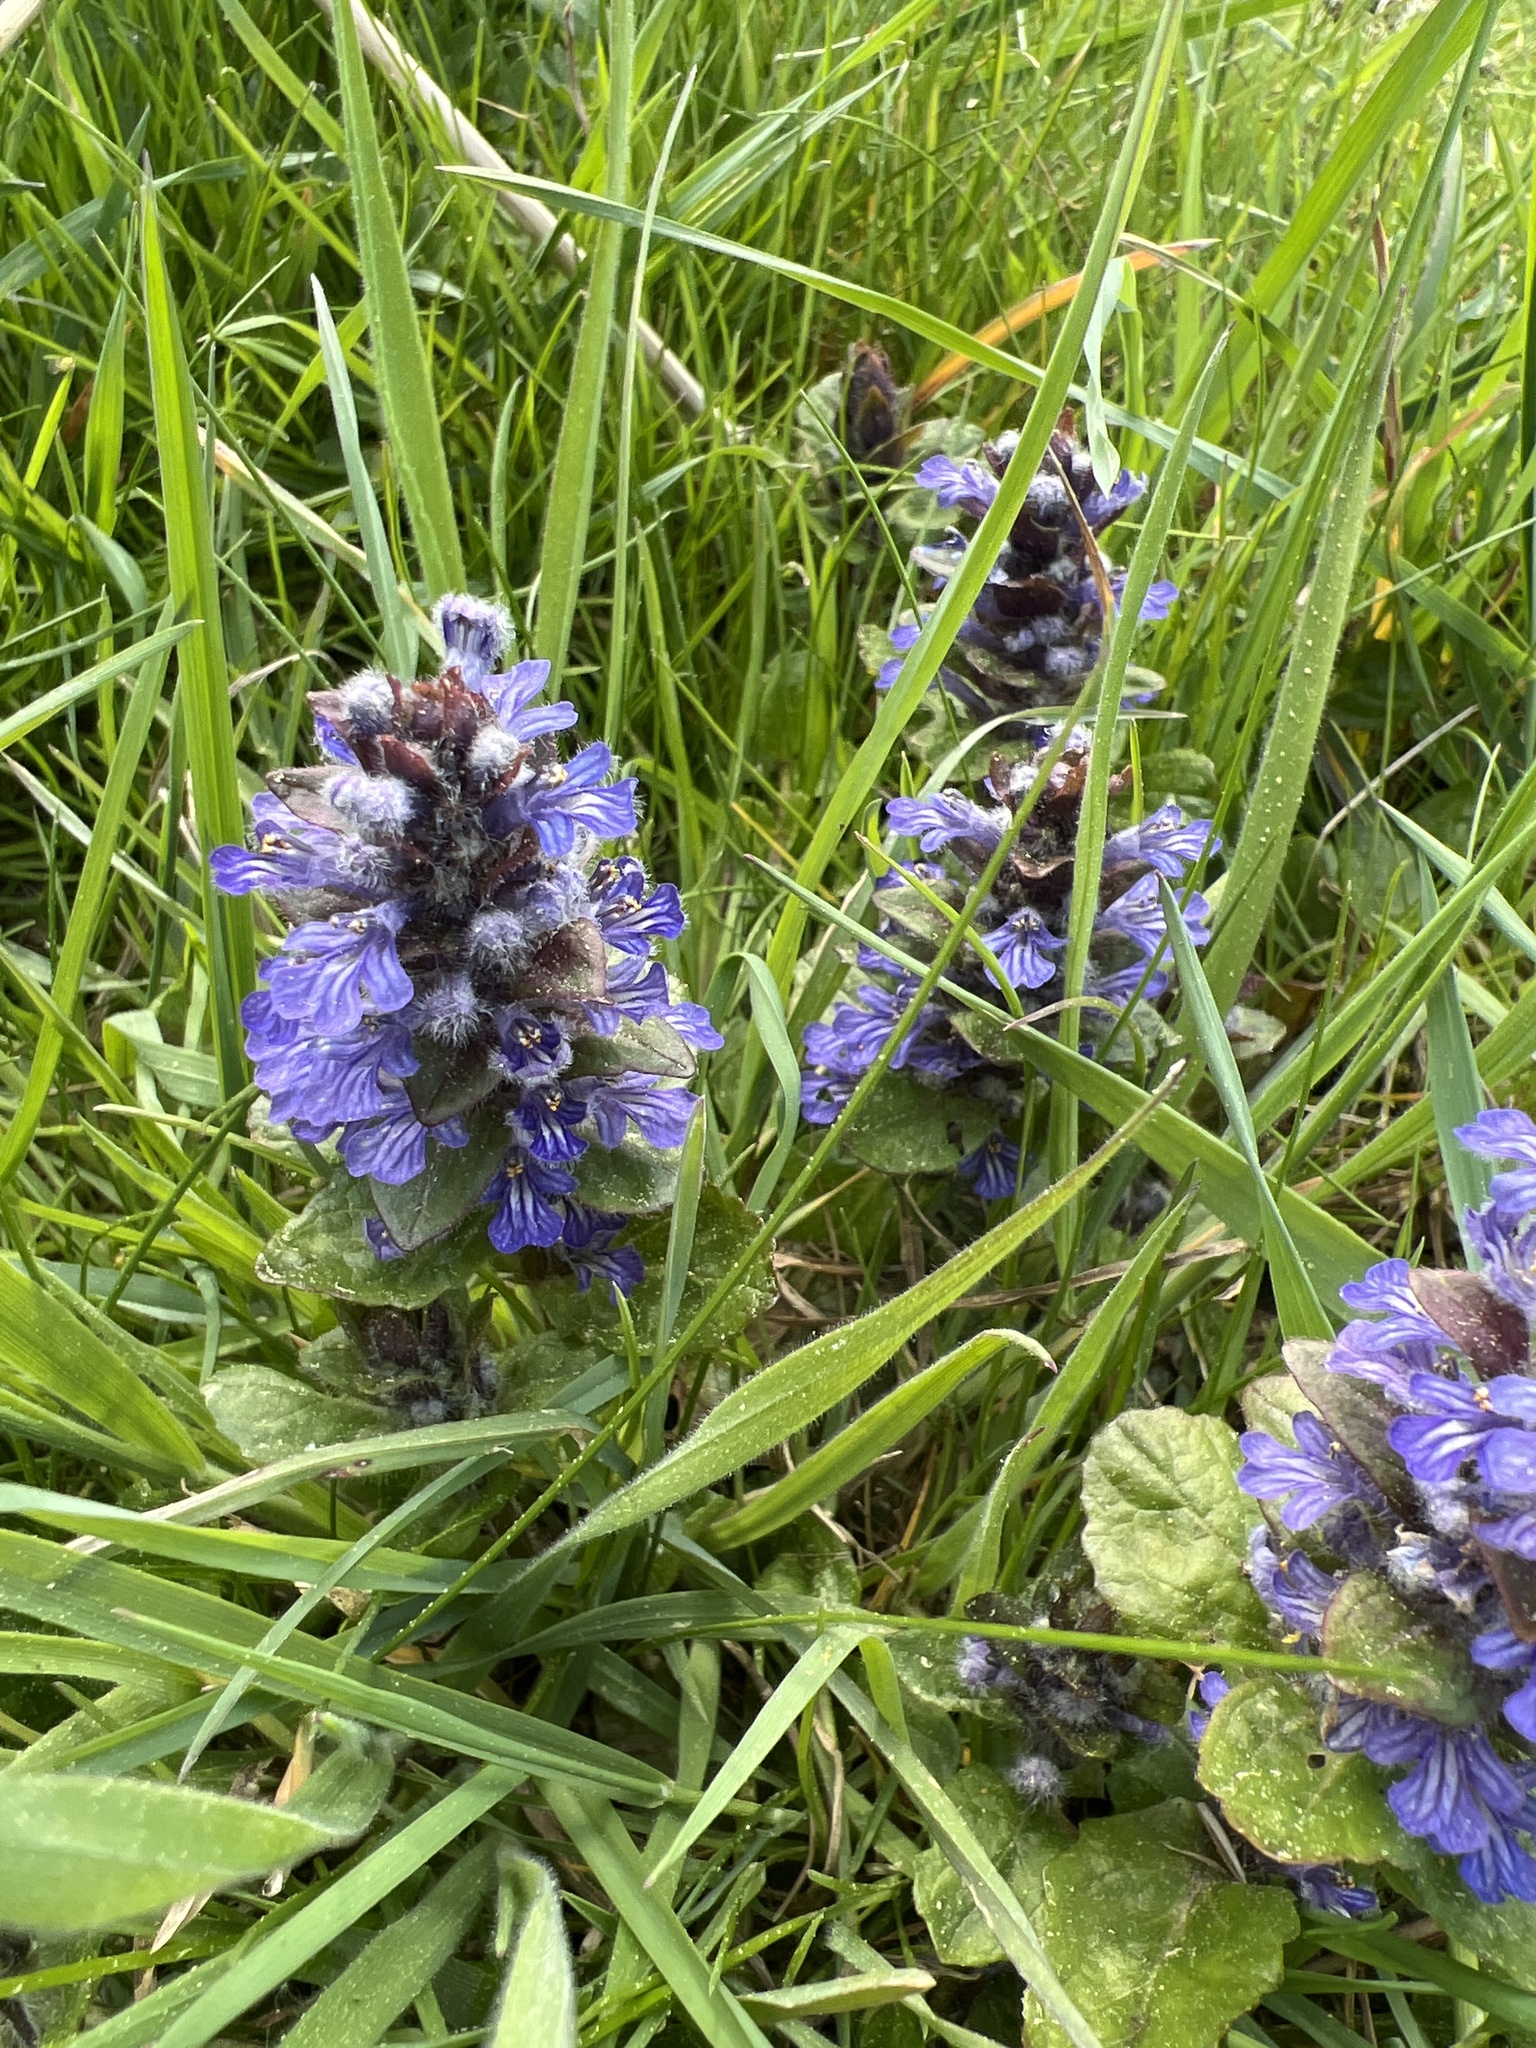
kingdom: Plantae
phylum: Tracheophyta
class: Magnoliopsida
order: Lamiales
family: Lamiaceae
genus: Ajuga
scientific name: Ajuga reptans
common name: Bugle
